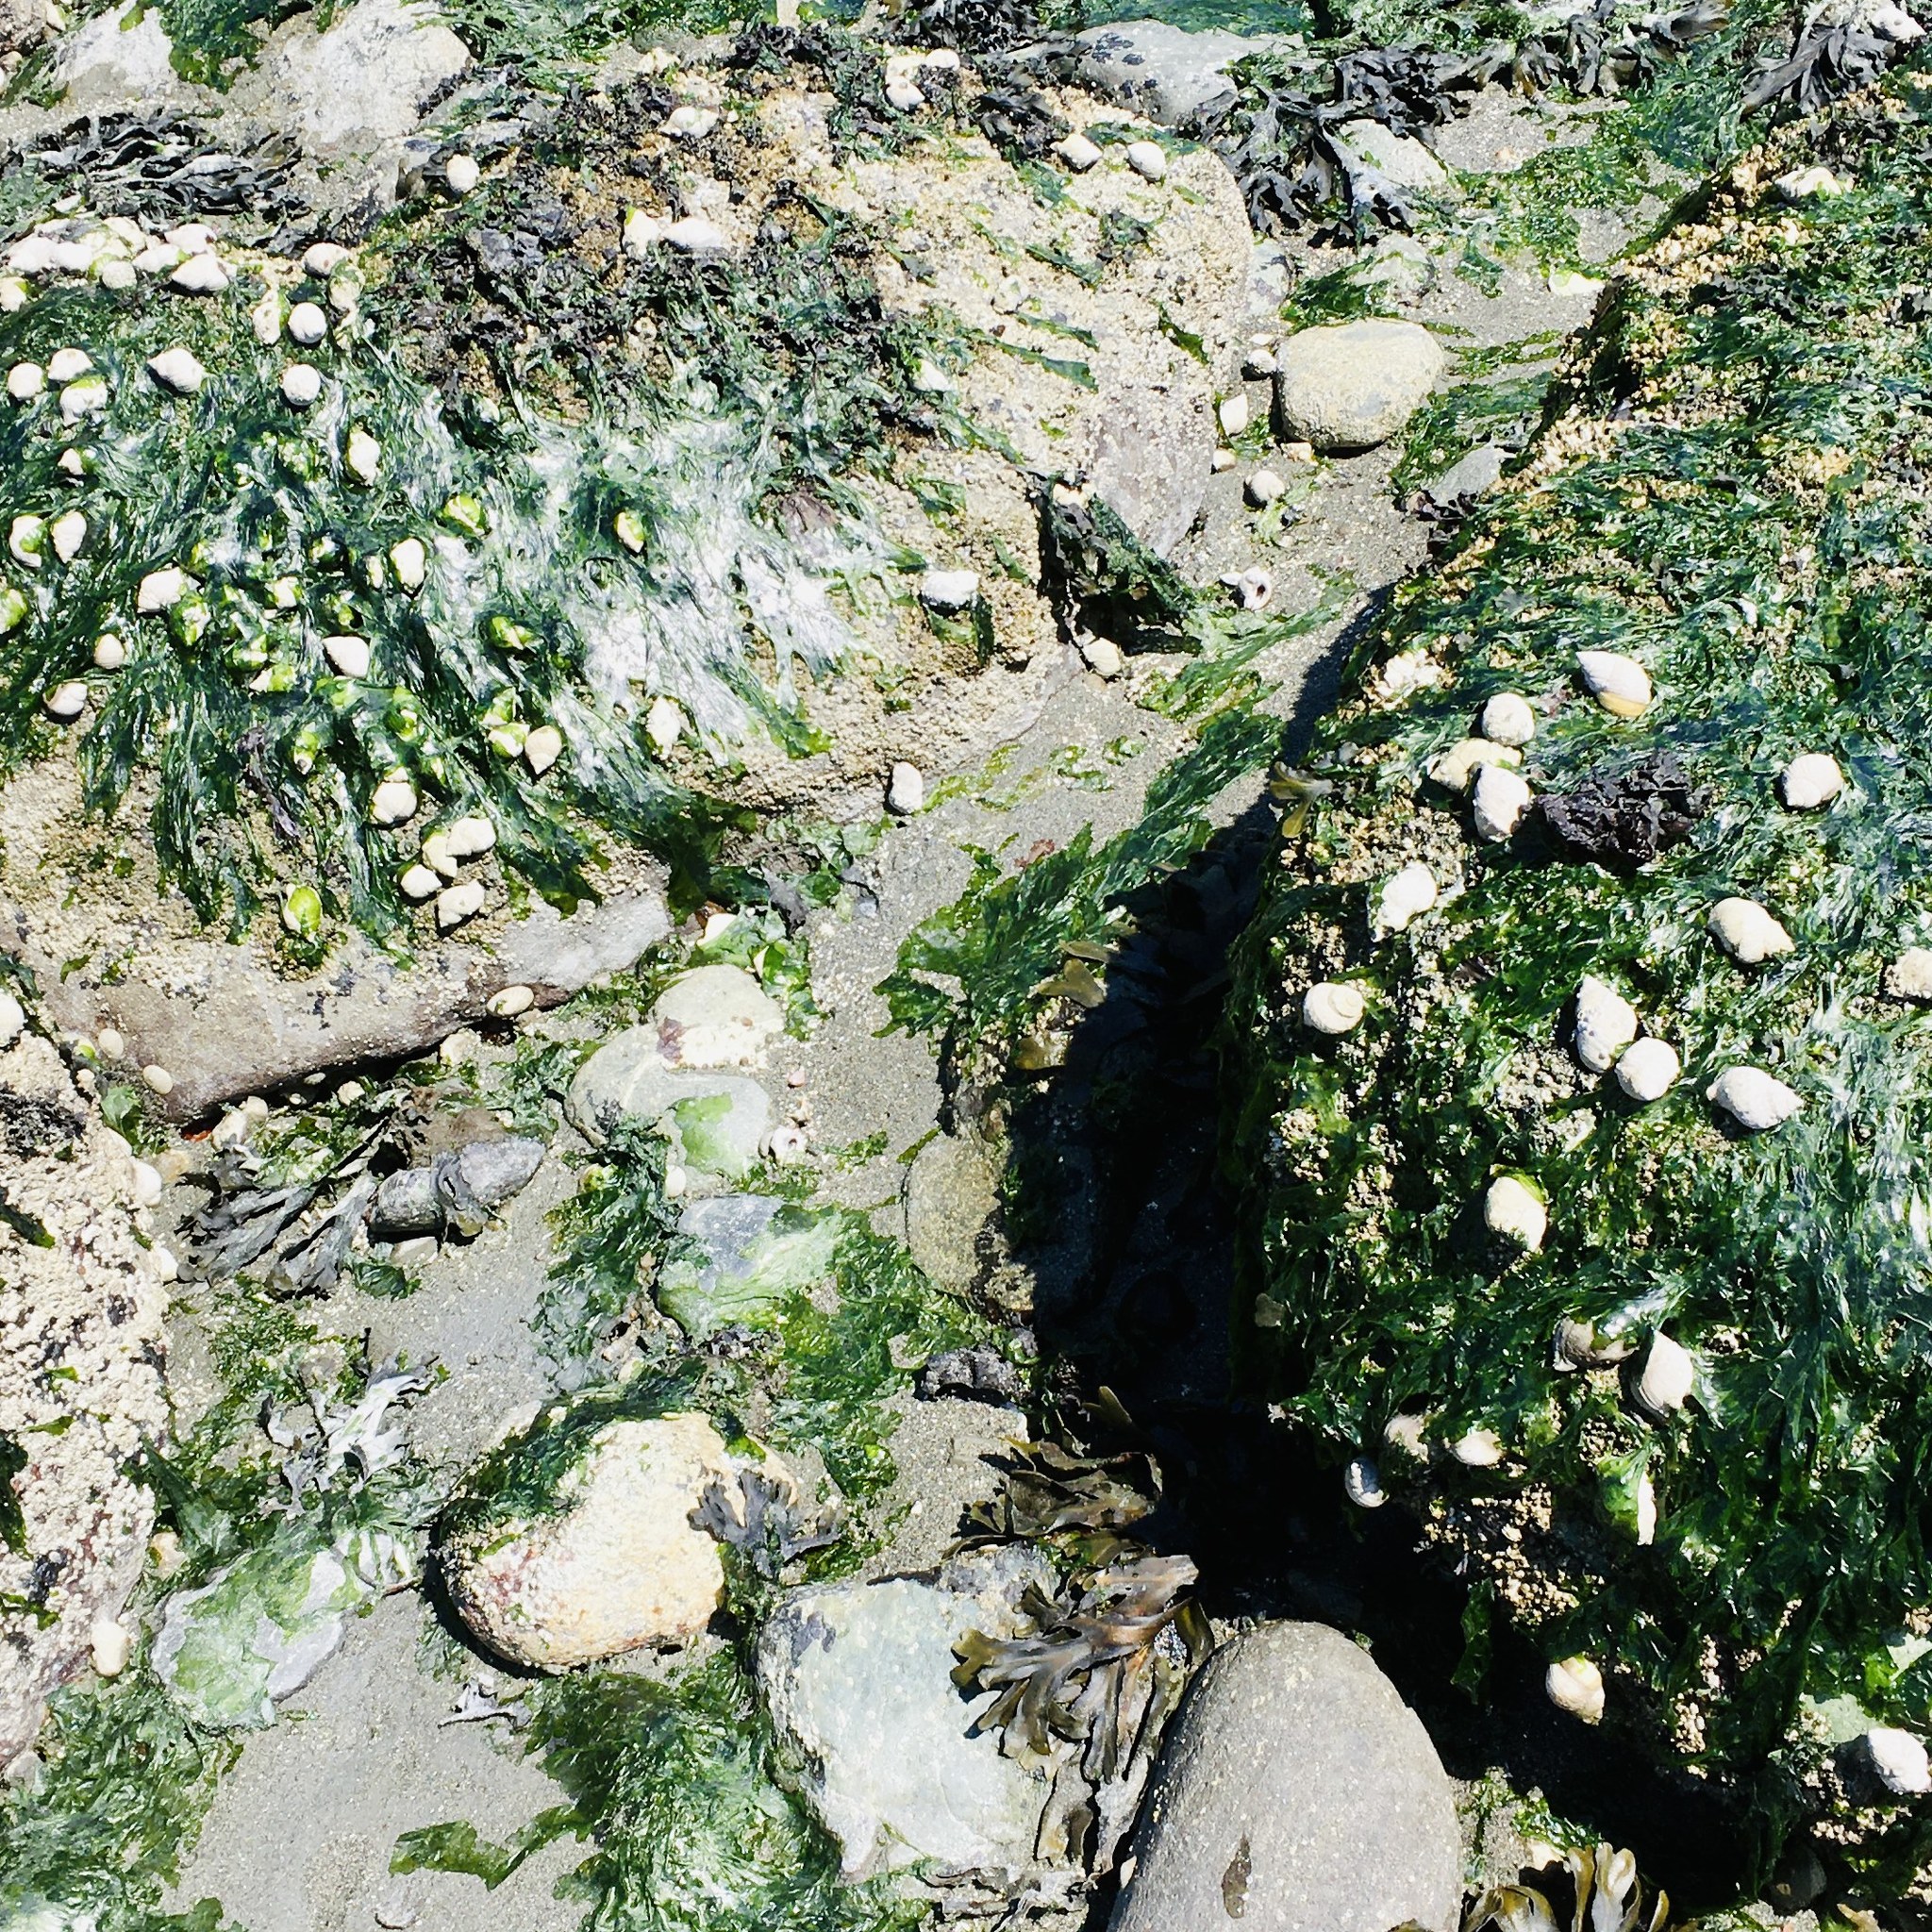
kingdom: Animalia
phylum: Mollusca
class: Gastropoda
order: Neogastropoda
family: Muricidae
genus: Nucella
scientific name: Nucella lamellosa
